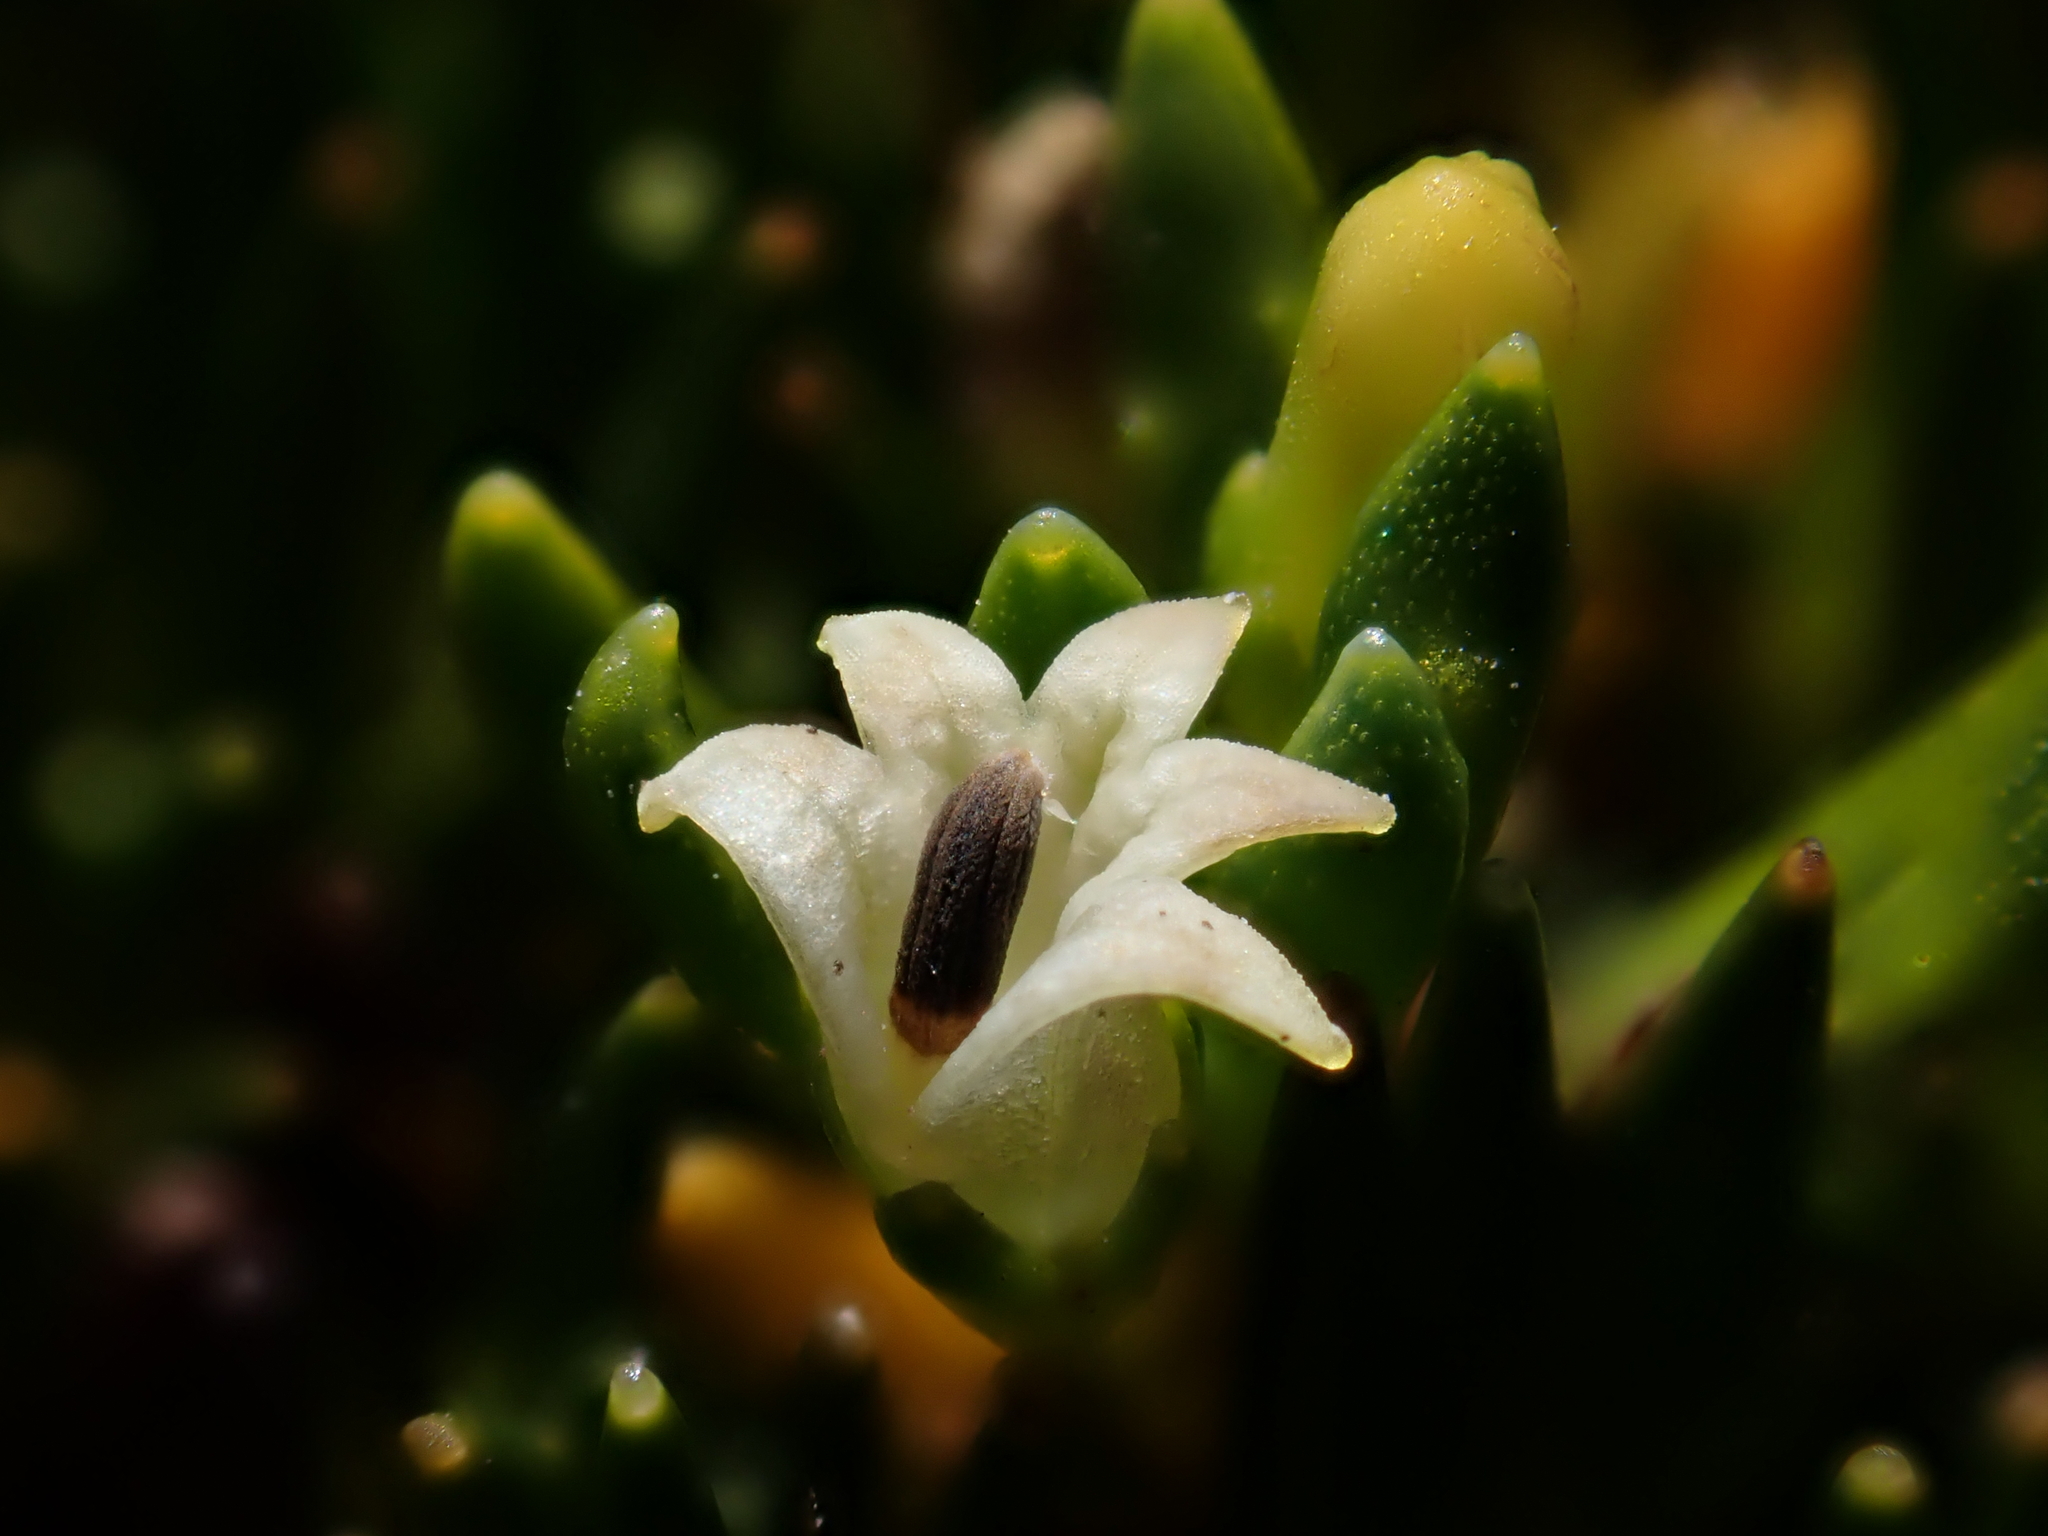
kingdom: Plantae
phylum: Tracheophyta
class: Magnoliopsida
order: Asterales
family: Campanulaceae
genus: Lysipomia
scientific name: Lysipomia montioides
